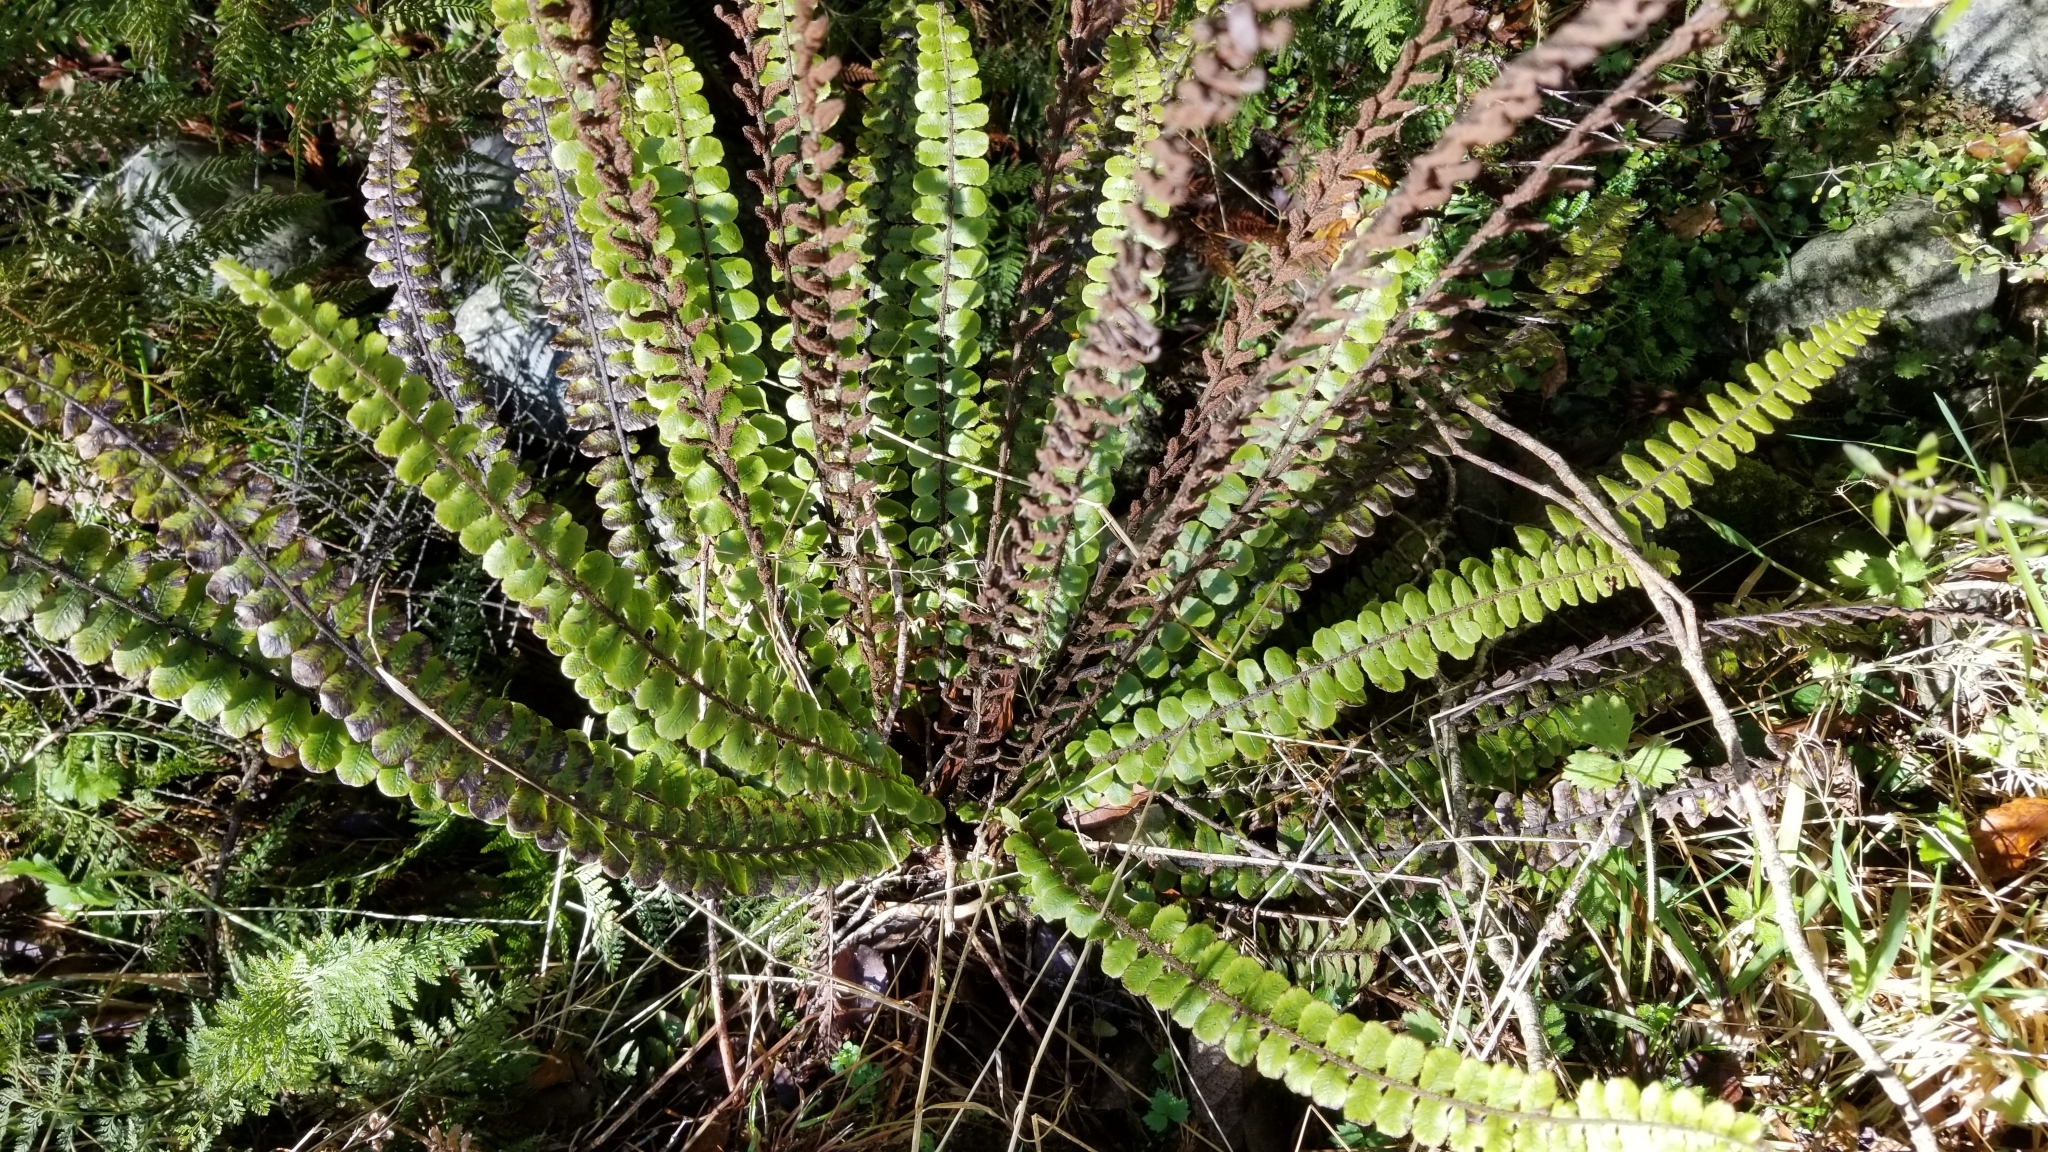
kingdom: Plantae
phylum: Tracheophyta
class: Polypodiopsida
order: Polypodiales
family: Blechnaceae
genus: Cranfillia
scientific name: Cranfillia fluviatilis
